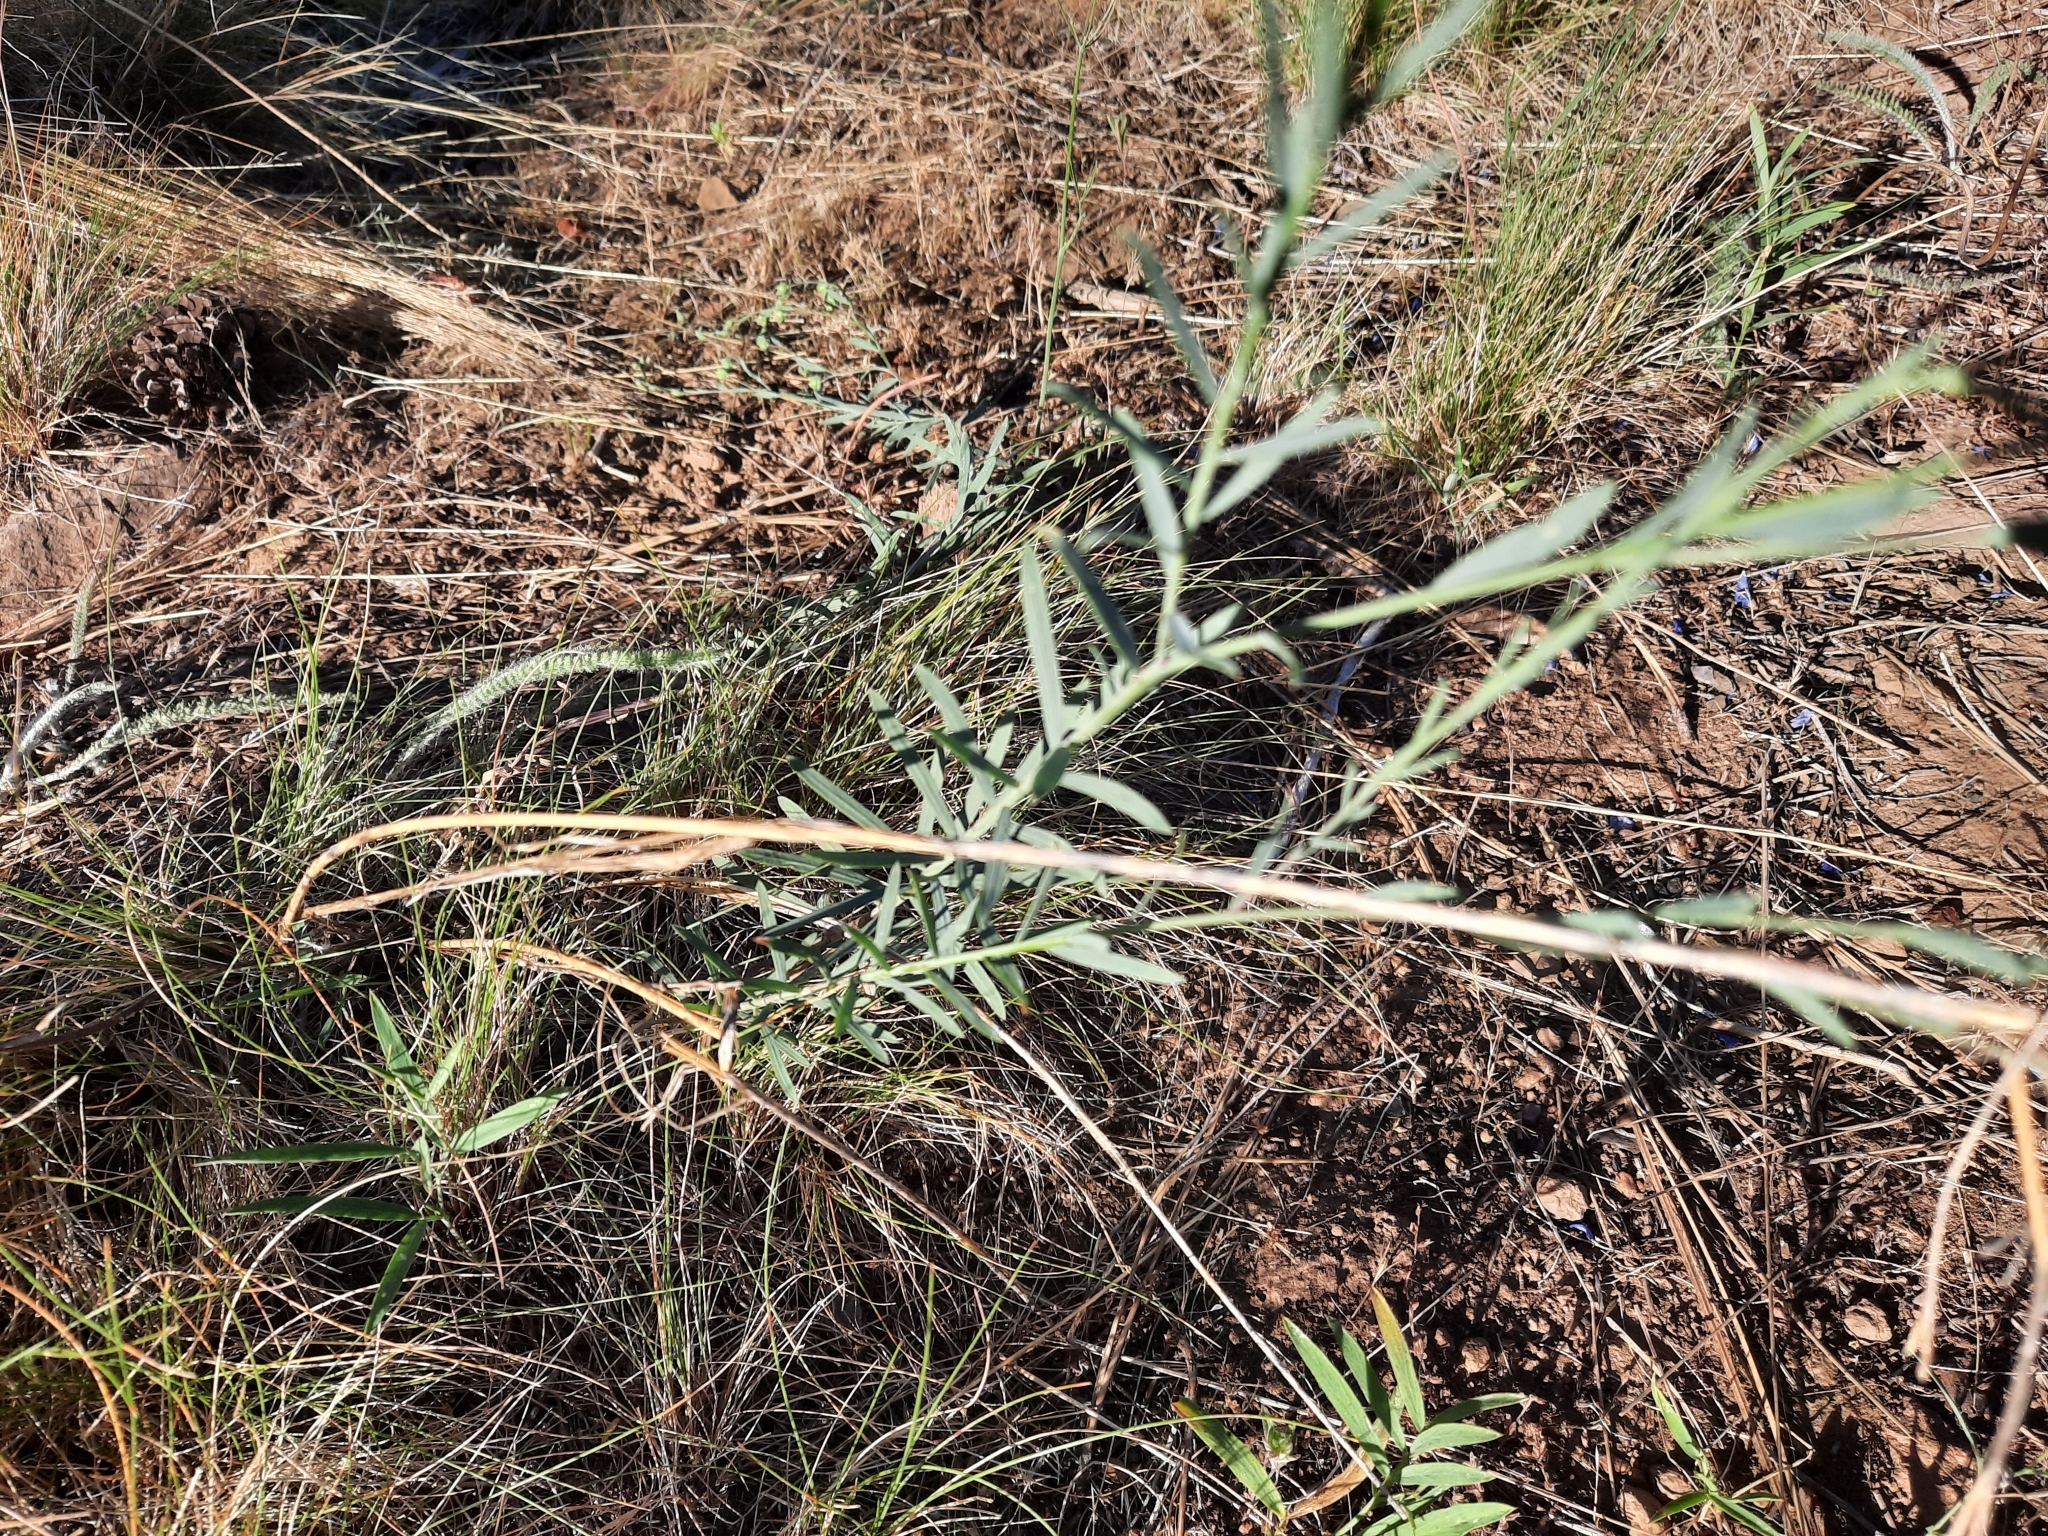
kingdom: Plantae
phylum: Tracheophyta
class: Magnoliopsida
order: Malpighiales
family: Linaceae
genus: Linum
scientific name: Linum lewisii
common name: Prairie flax
